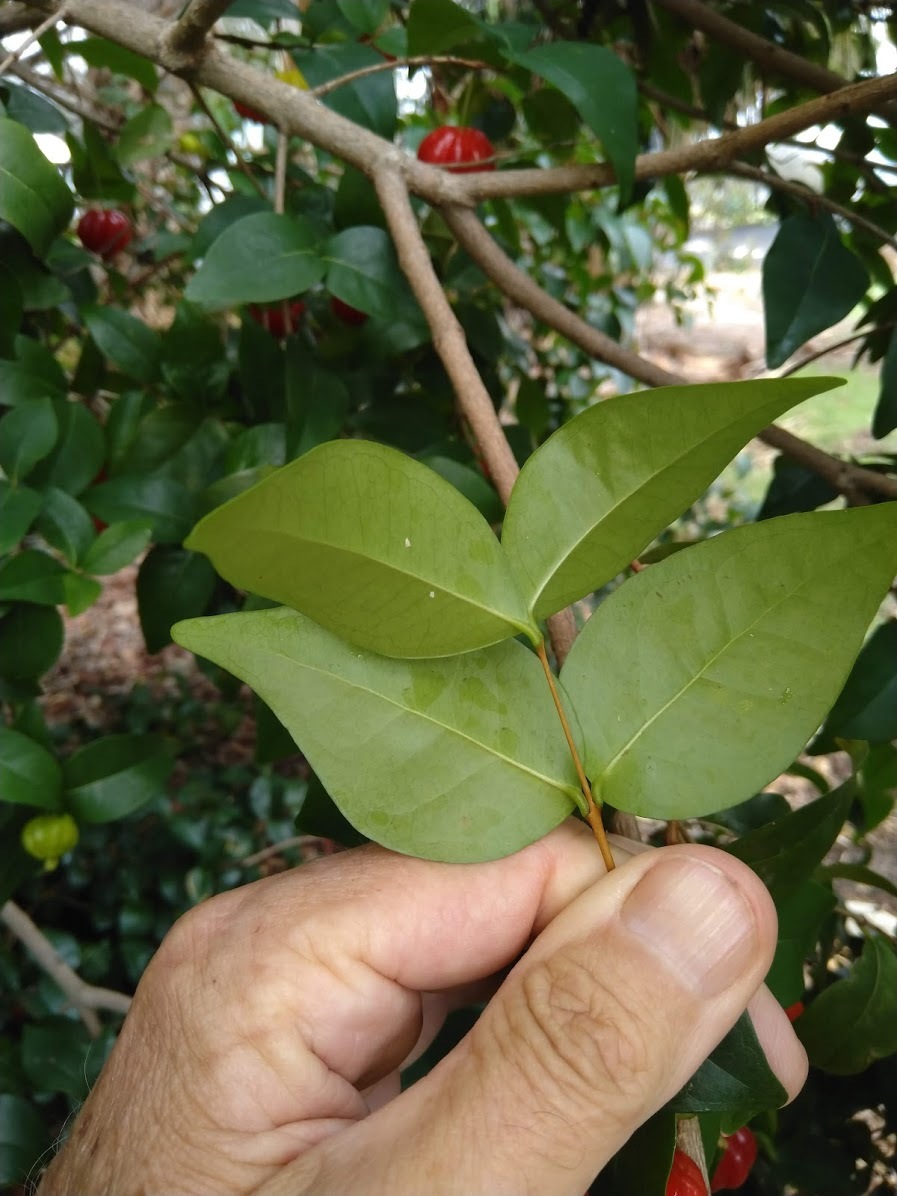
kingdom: Plantae
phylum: Tracheophyta
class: Magnoliopsida
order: Myrtales
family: Myrtaceae
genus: Eugenia
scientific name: Eugenia uniflora
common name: Surinam cherry
